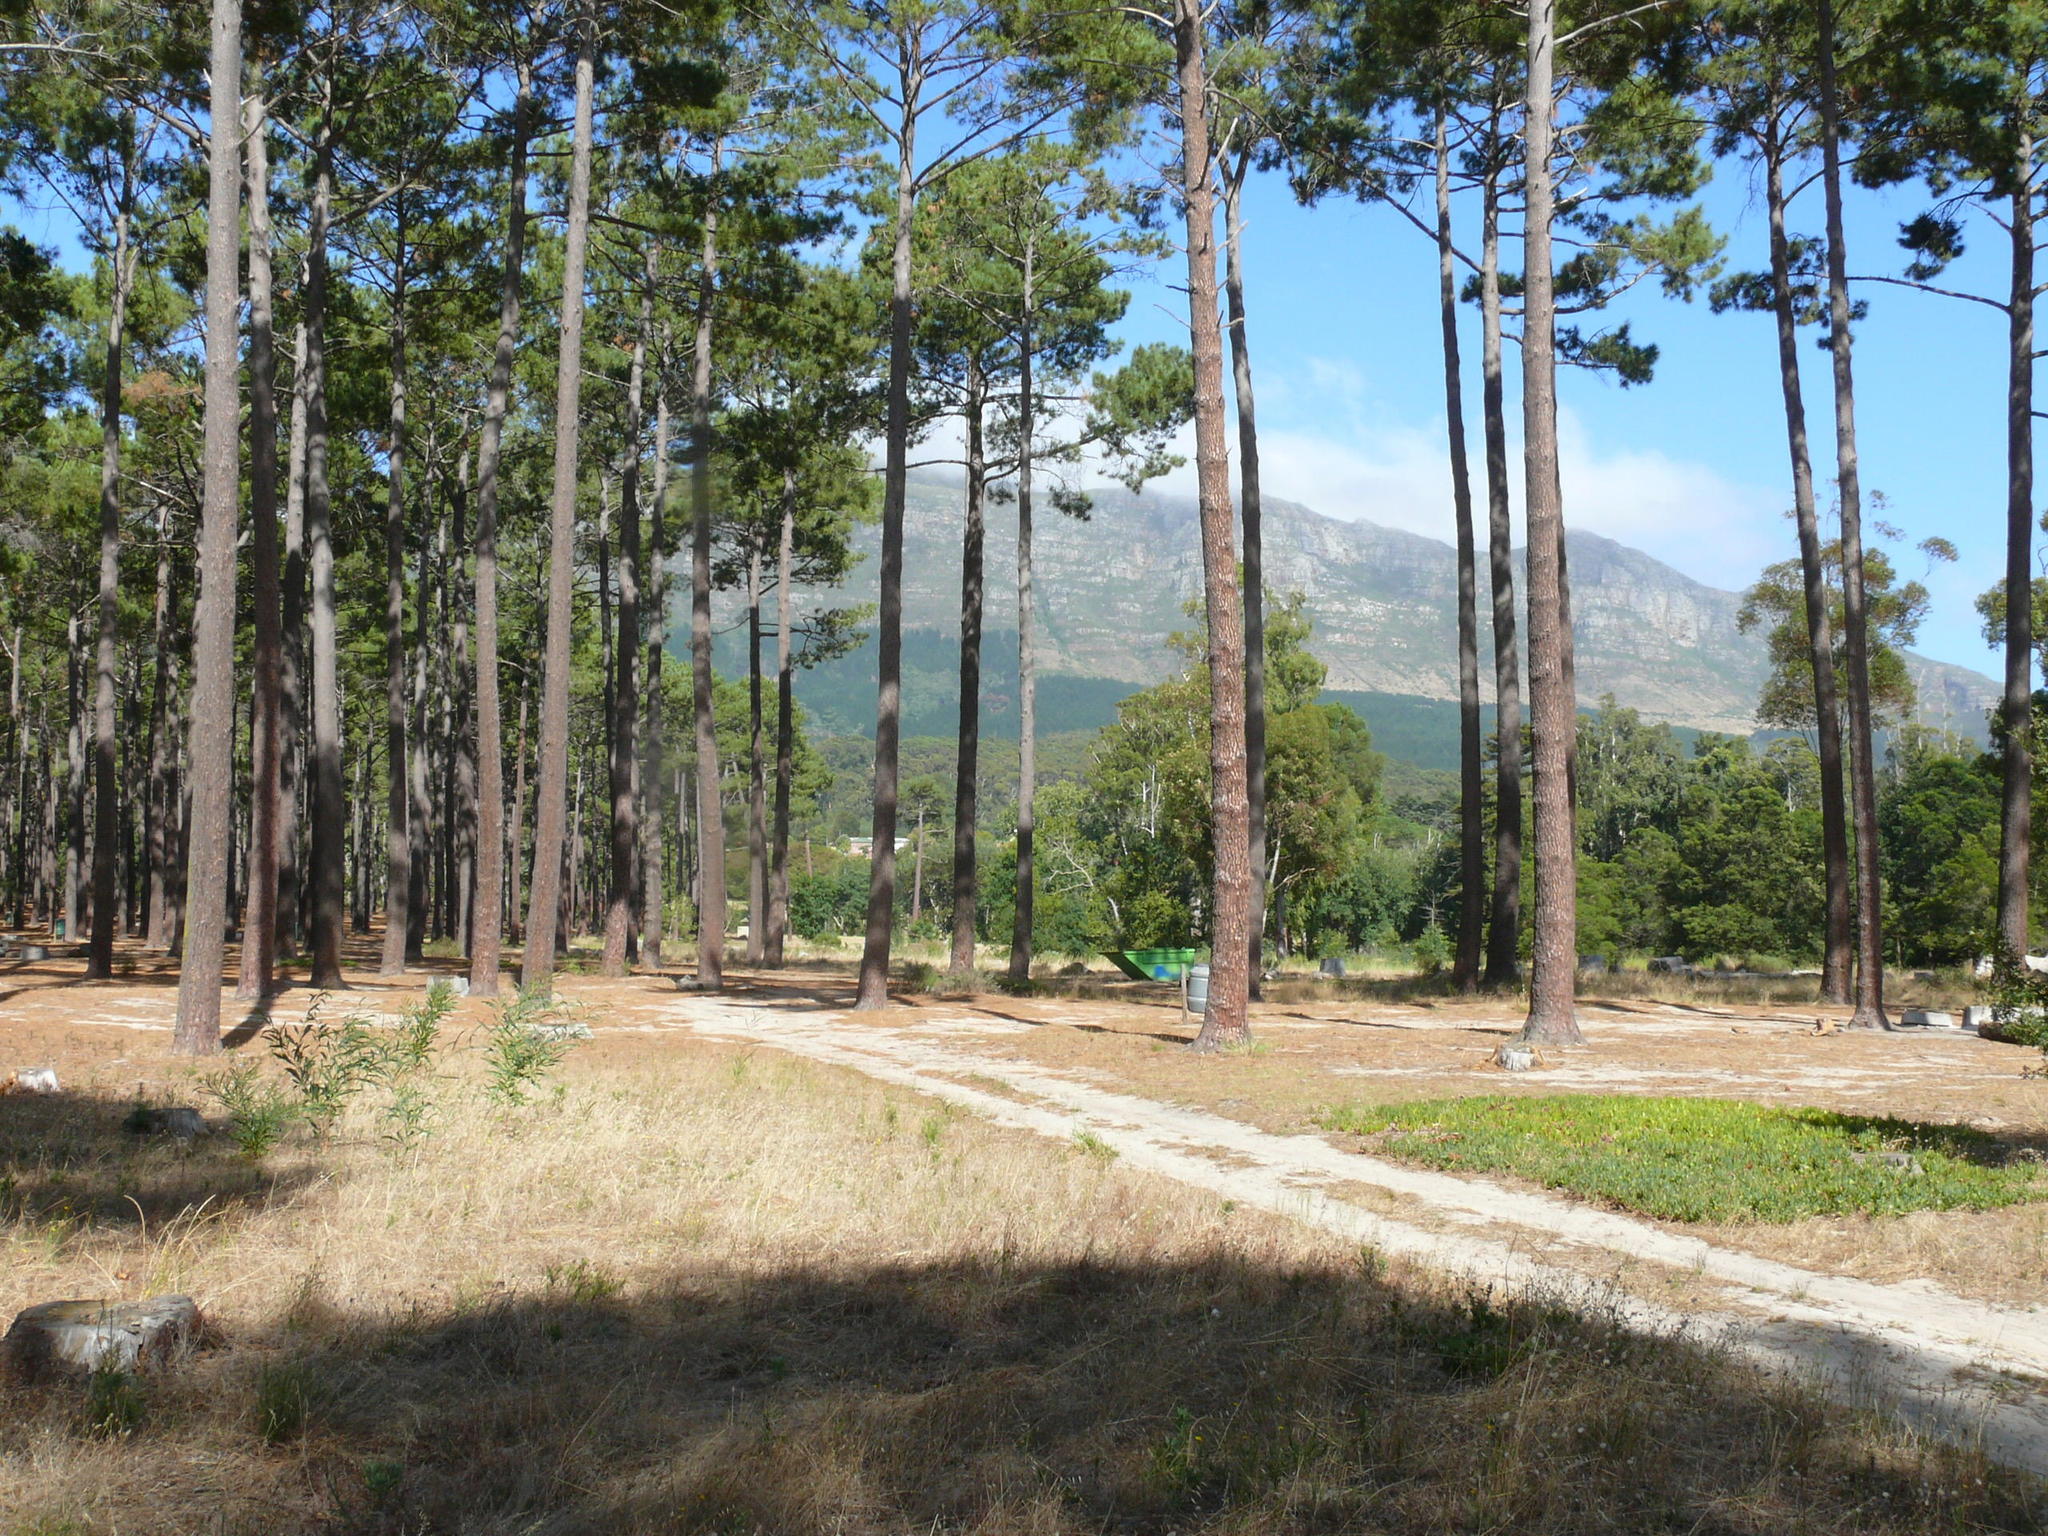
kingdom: Plantae
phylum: Tracheophyta
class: Magnoliopsida
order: Caryophyllales
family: Aizoaceae
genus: Carpobrotus
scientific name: Carpobrotus edulis
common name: Hottentot-fig
